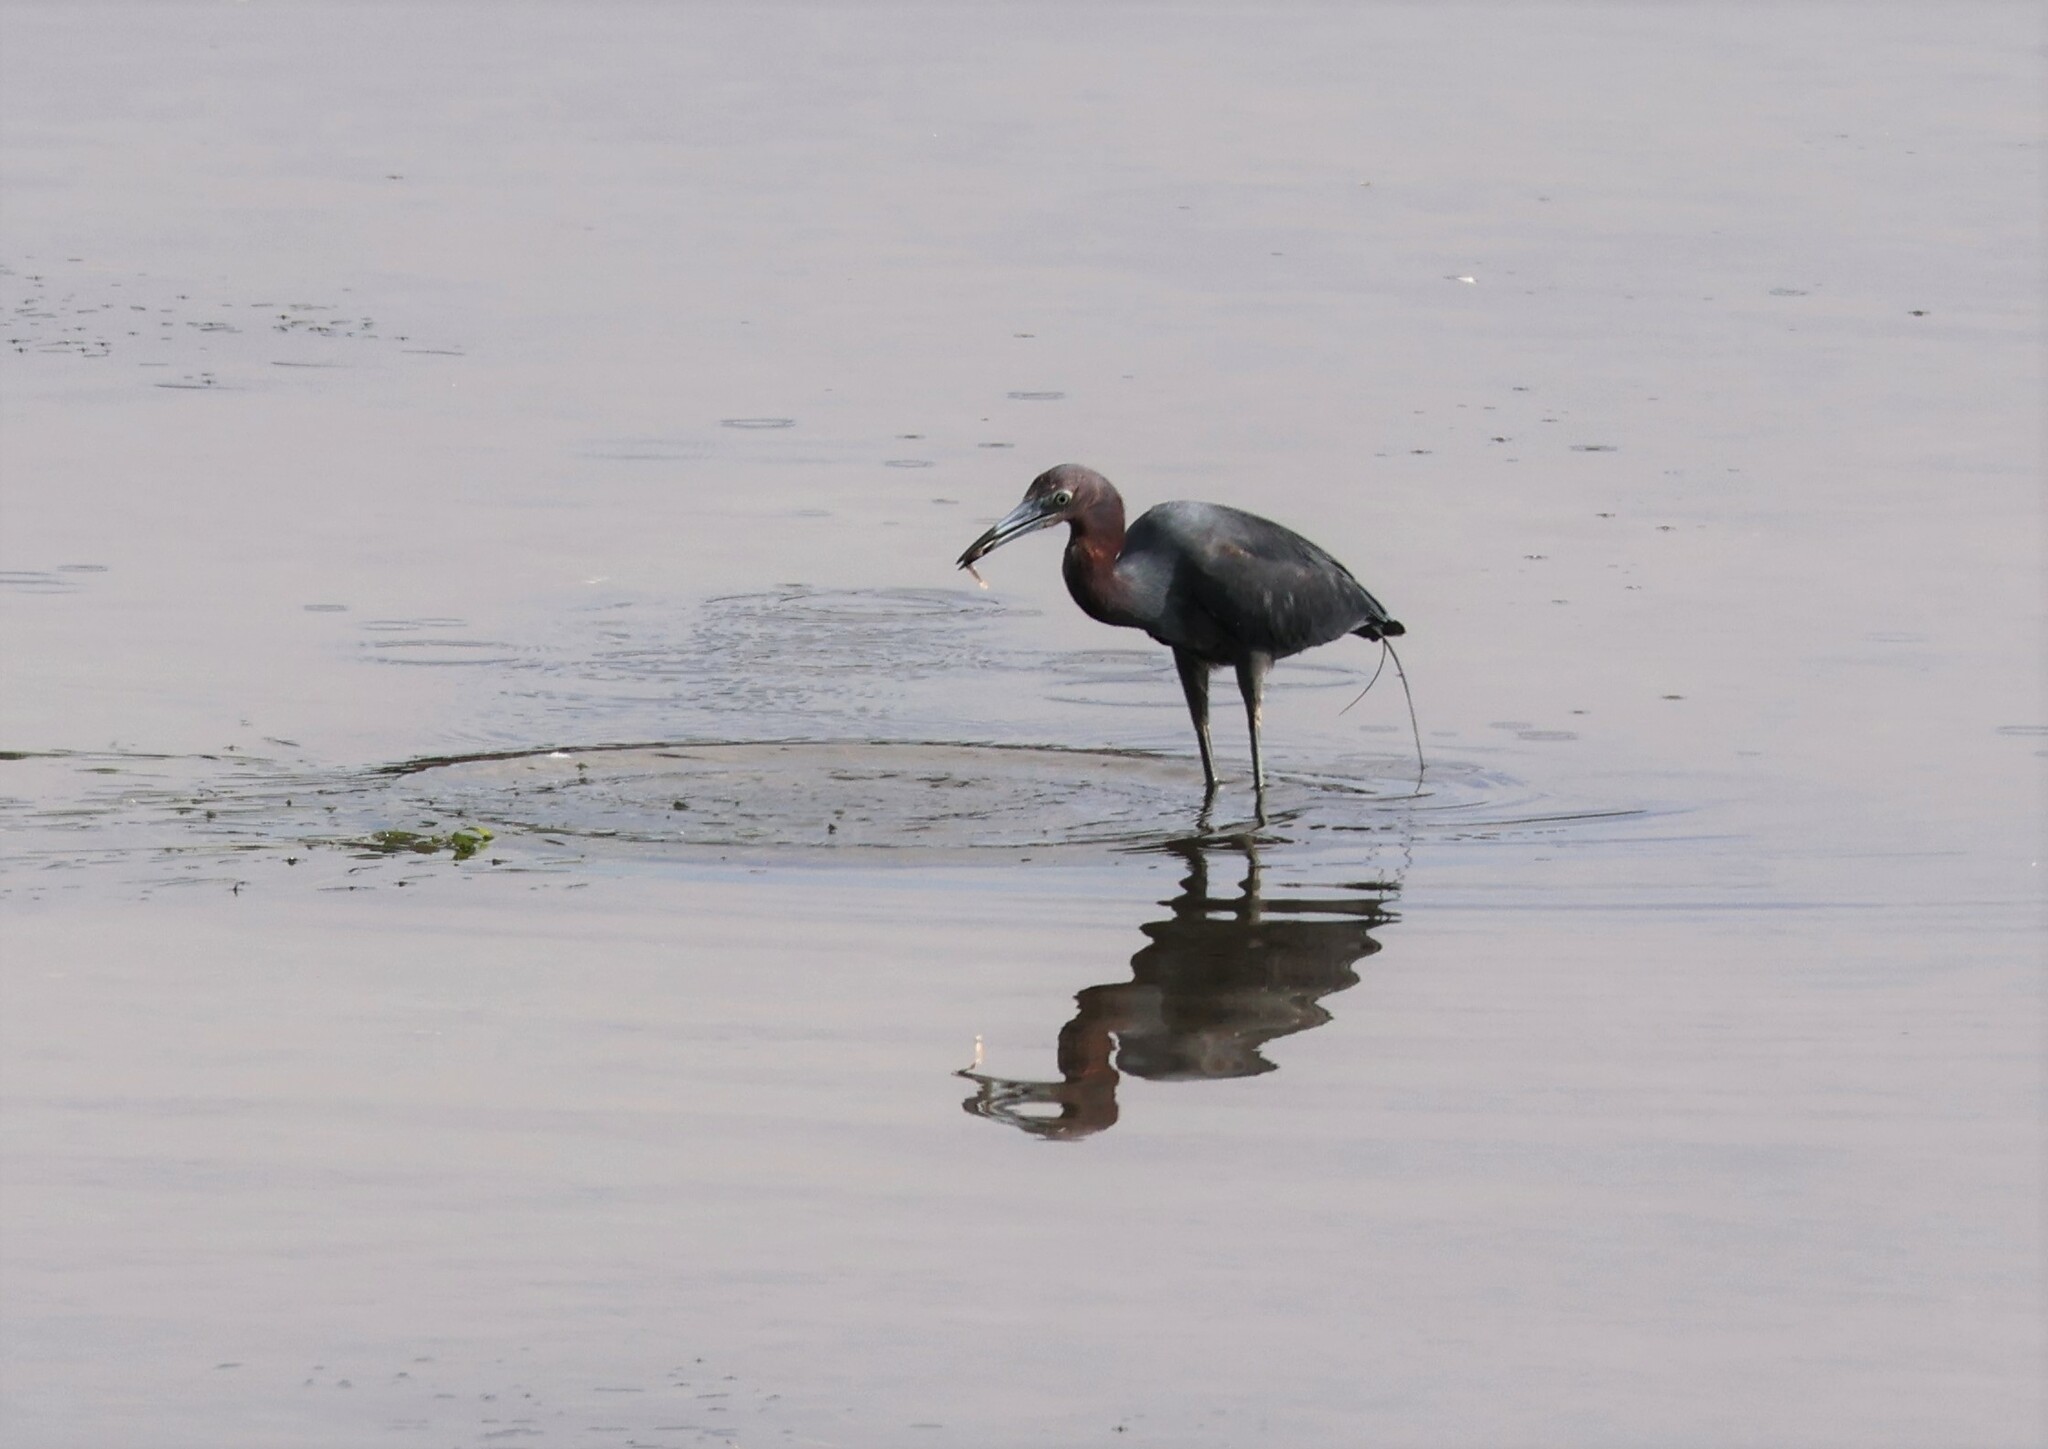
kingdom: Animalia
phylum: Chordata
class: Aves
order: Pelecaniformes
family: Ardeidae
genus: Egretta
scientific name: Egretta caerulea
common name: Little blue heron
